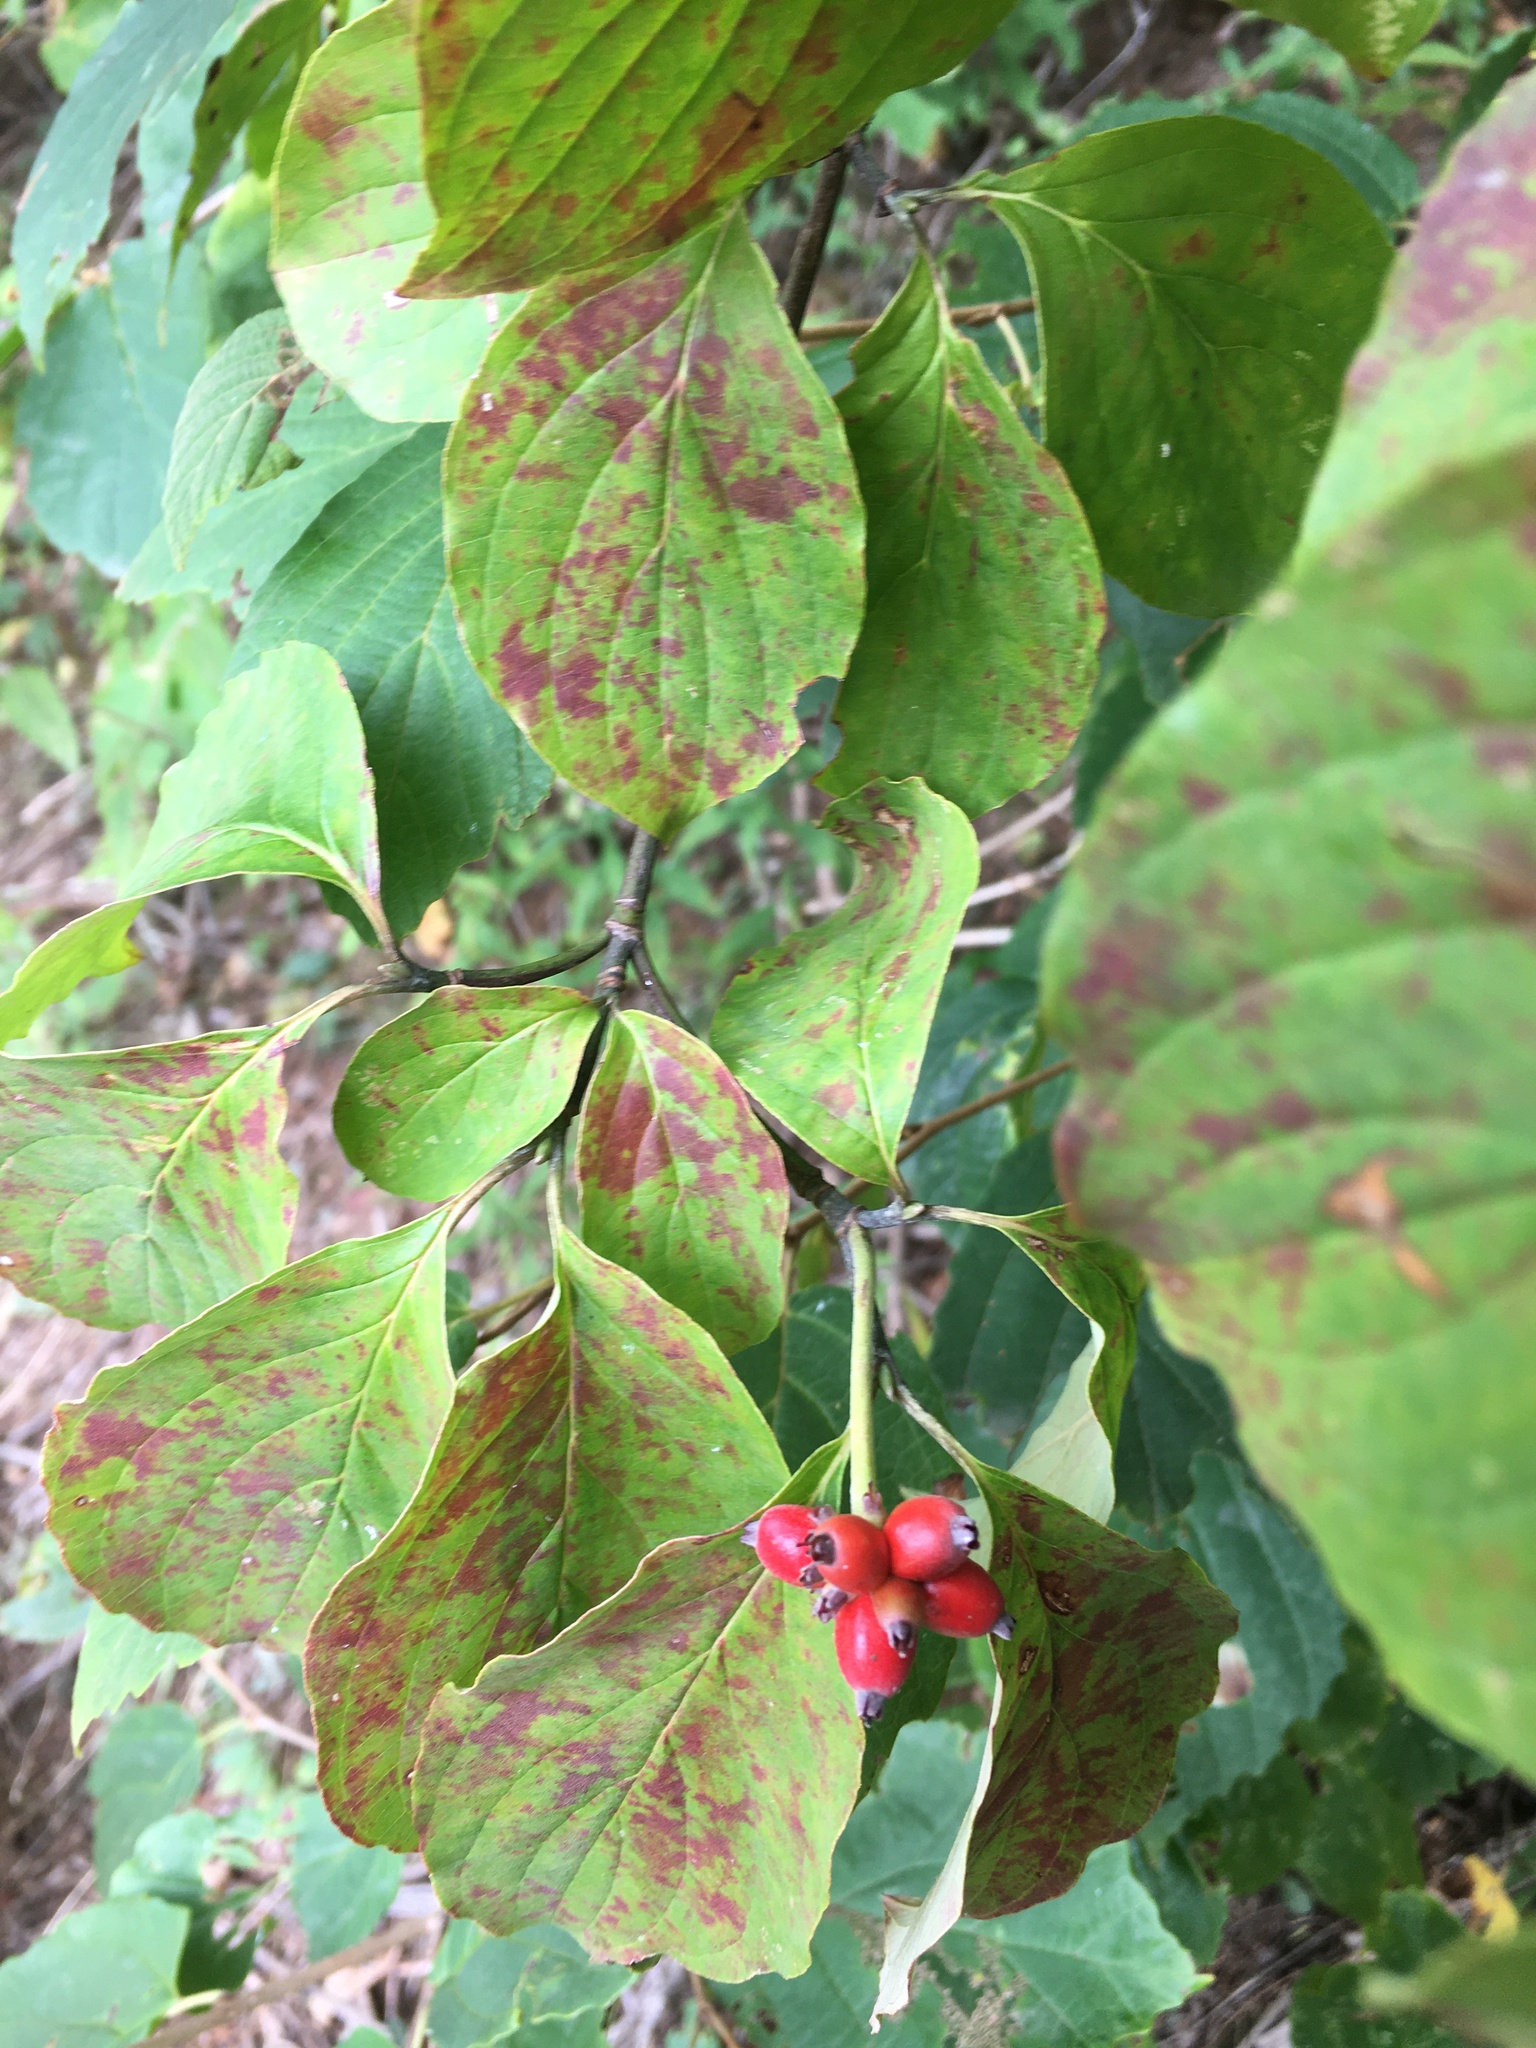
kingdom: Plantae
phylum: Tracheophyta
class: Magnoliopsida
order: Cornales
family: Cornaceae
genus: Cornus
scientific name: Cornus florida
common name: Flowering dogwood
